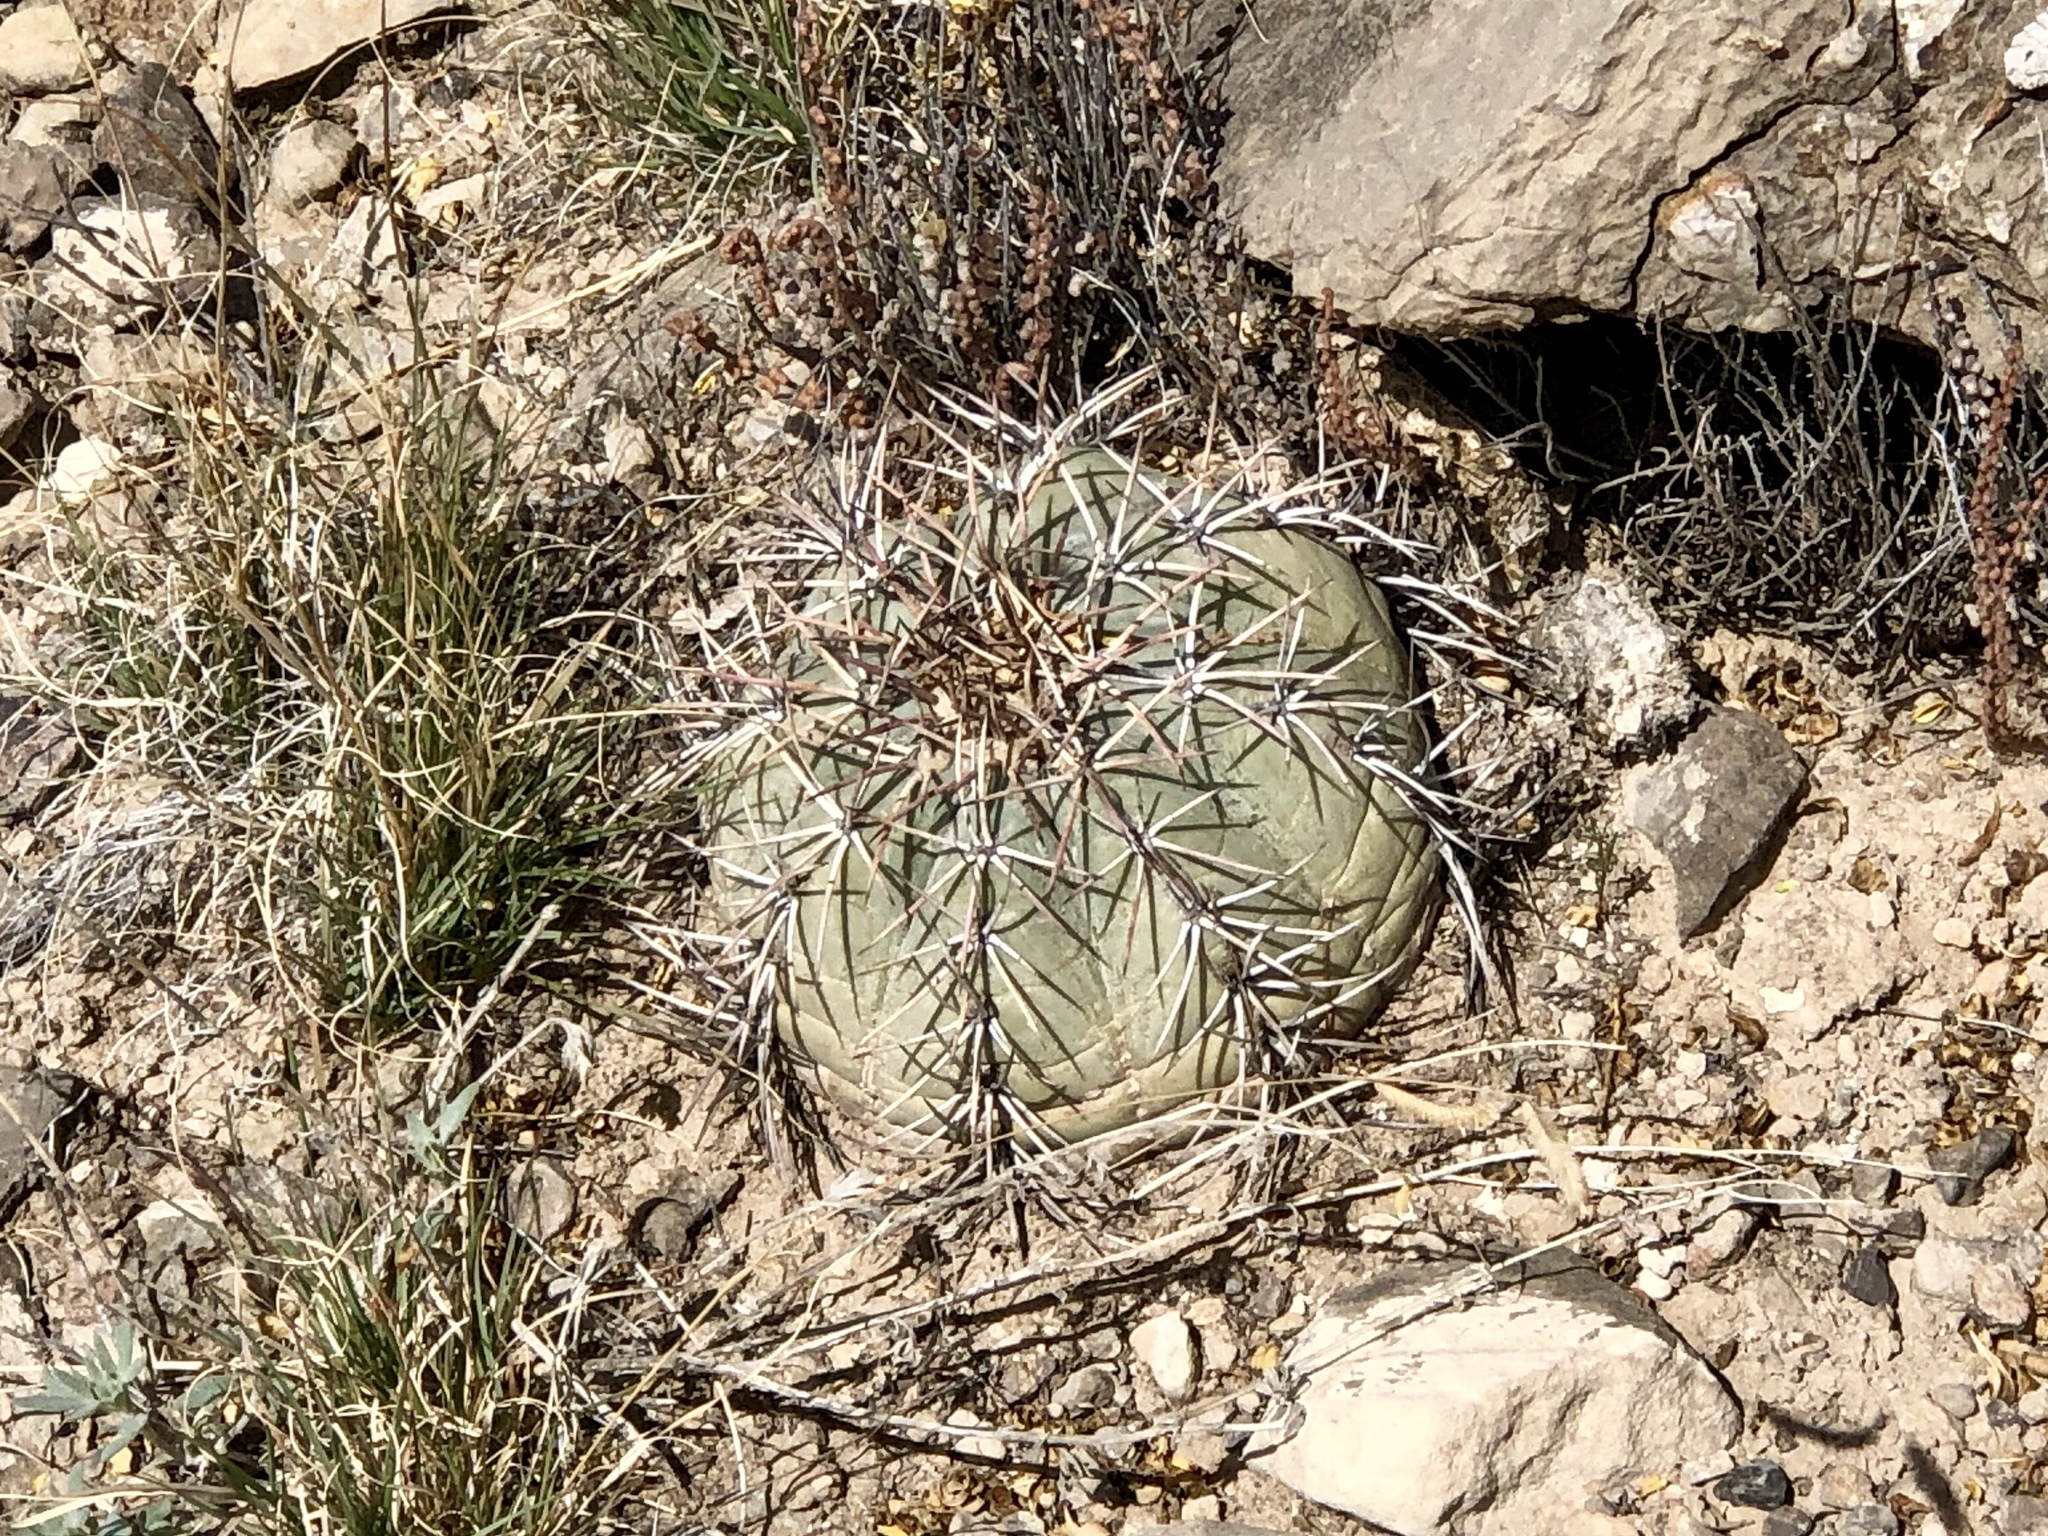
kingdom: Plantae
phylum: Tracheophyta
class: Magnoliopsida
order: Caryophyllales
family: Cactaceae
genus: Echinocactus
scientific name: Echinocactus horizonthalonius
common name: Devilshead
